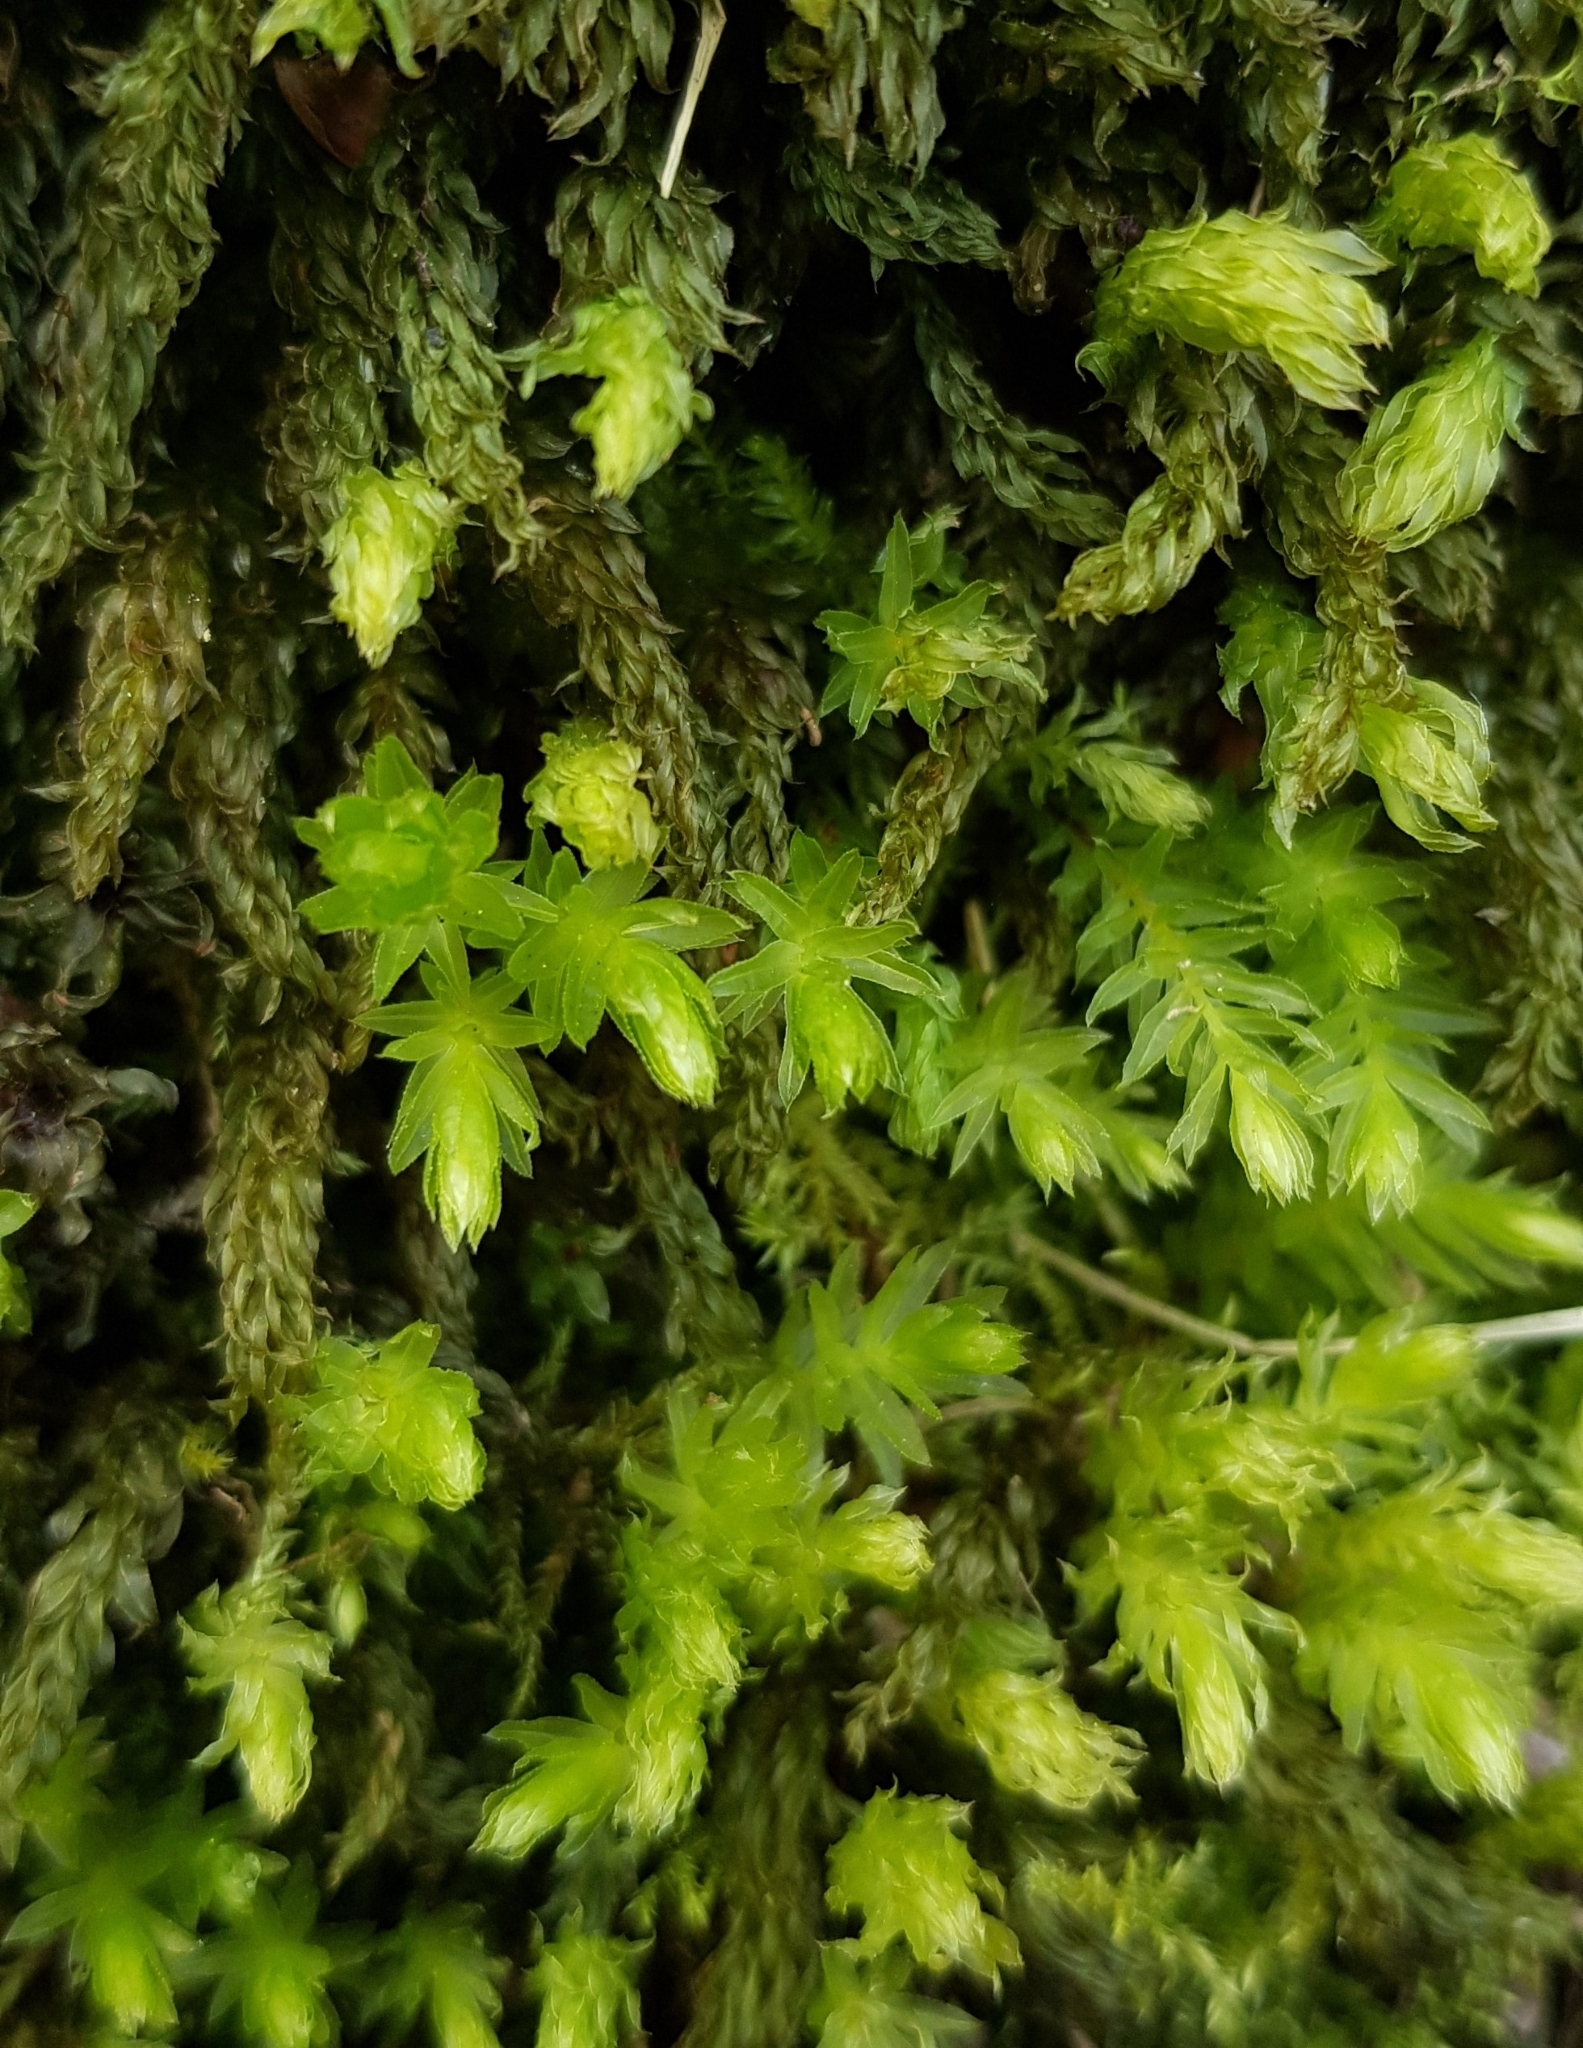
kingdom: Plantae
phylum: Bryophyta
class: Bryopsida
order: Bryales
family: Mniaceae
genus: Mnium
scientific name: Mnium hornum
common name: Swan's-neck leafy moss
